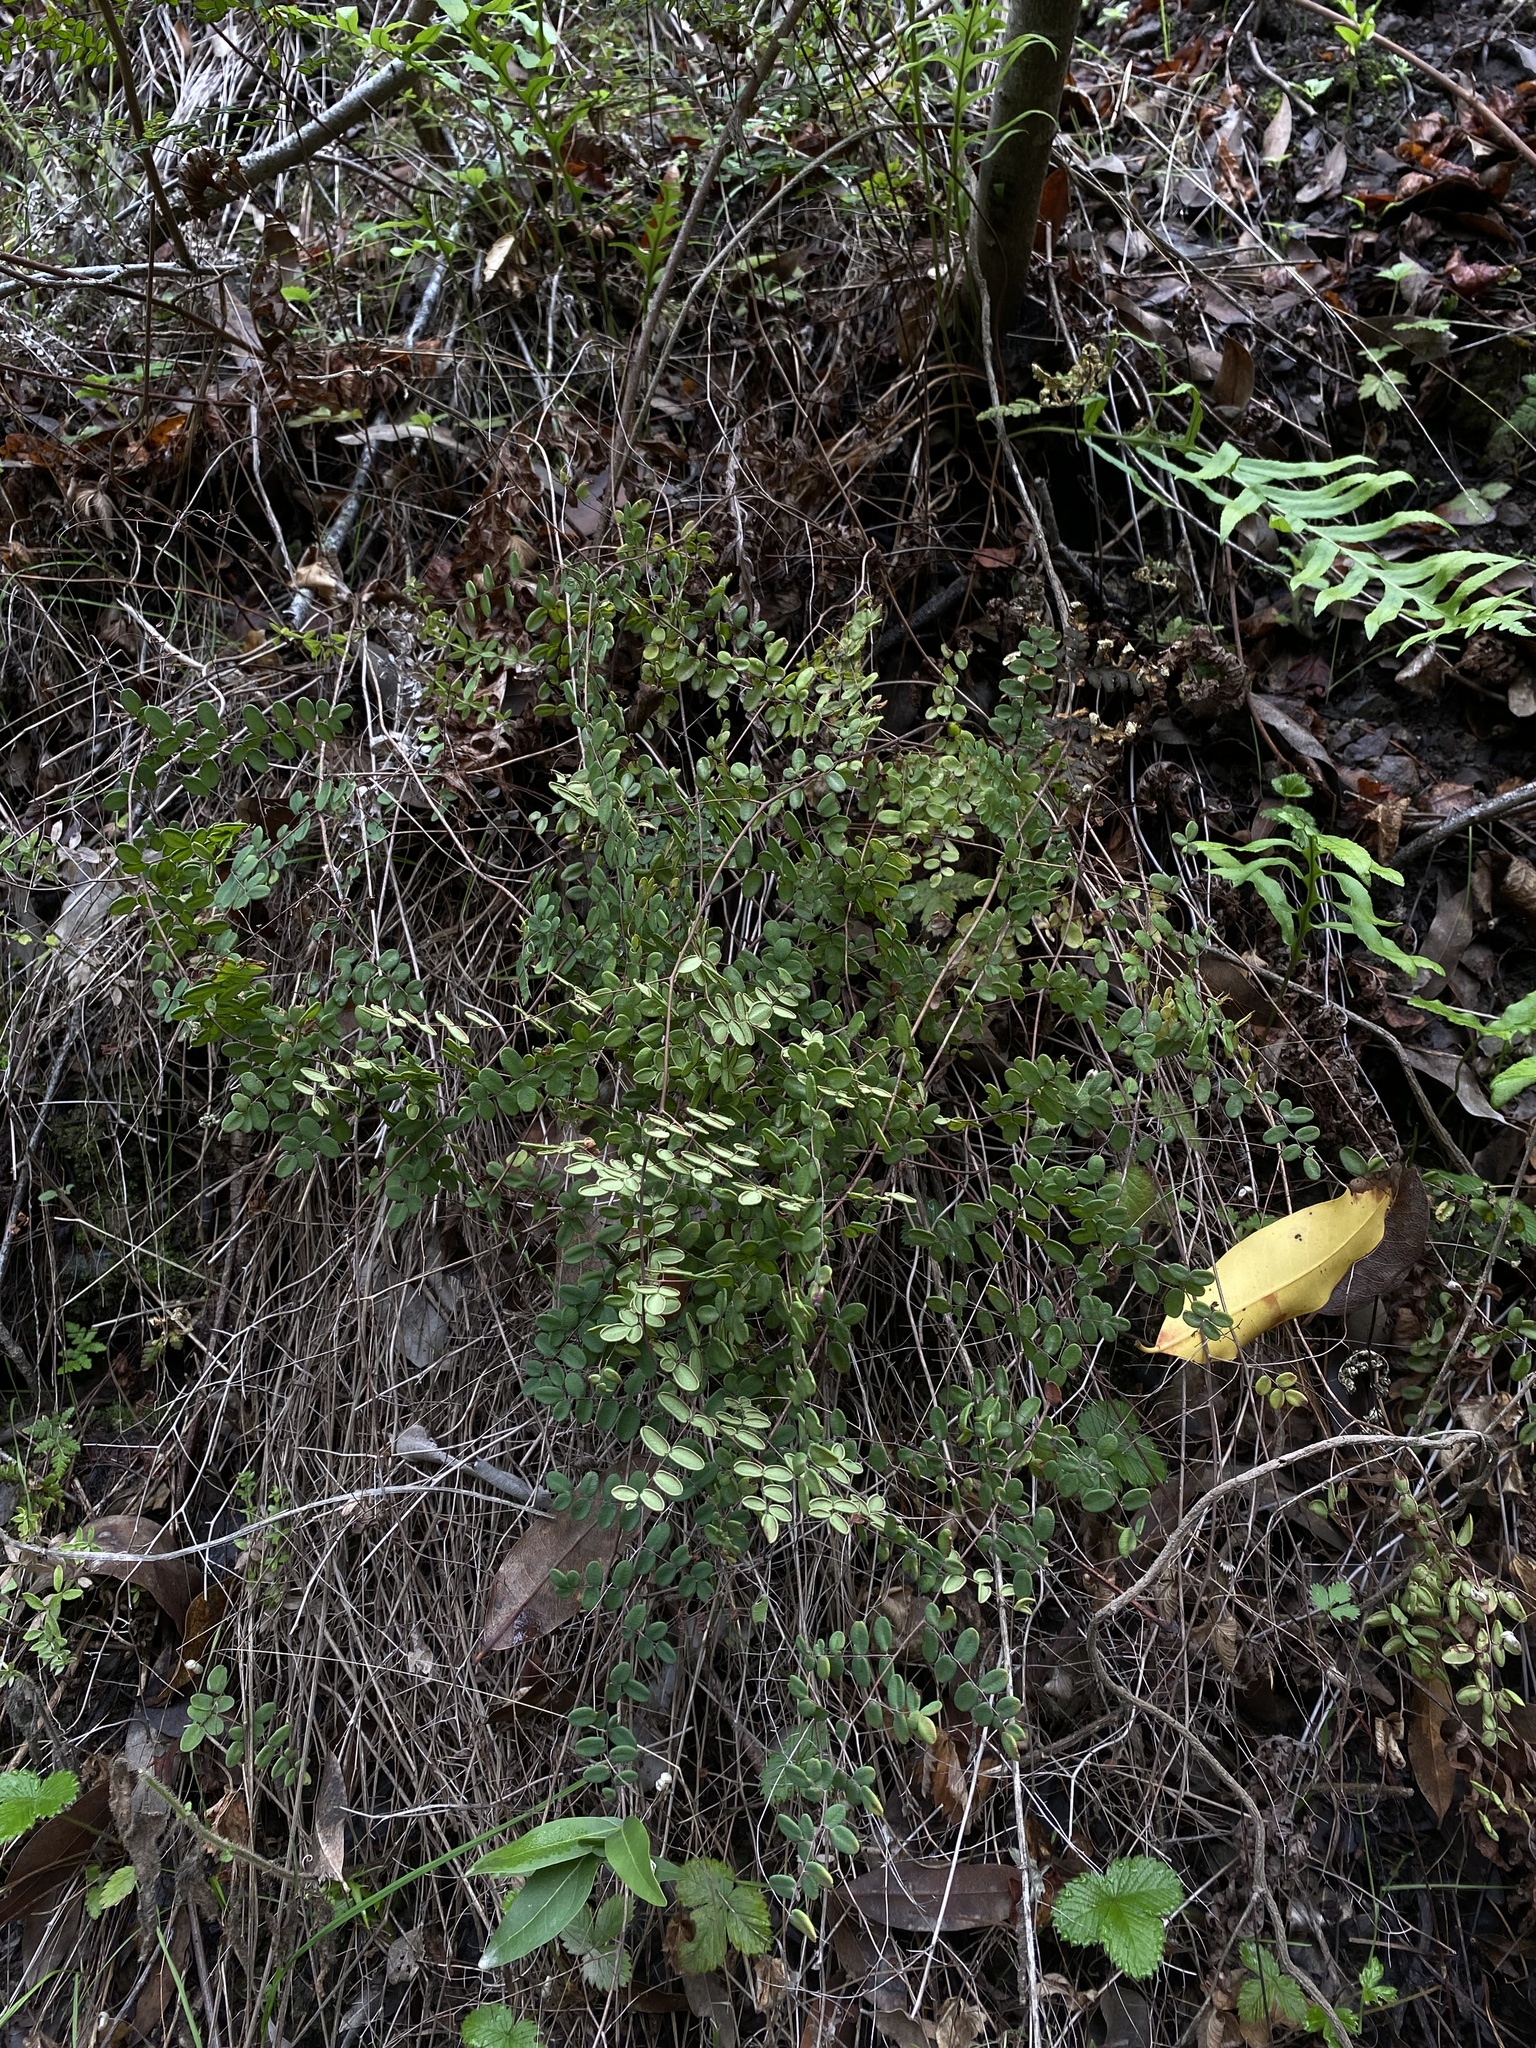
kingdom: Plantae
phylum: Tracheophyta
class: Polypodiopsida
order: Polypodiales
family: Pteridaceae
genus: Pellaea
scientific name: Pellaea andromedifolia
